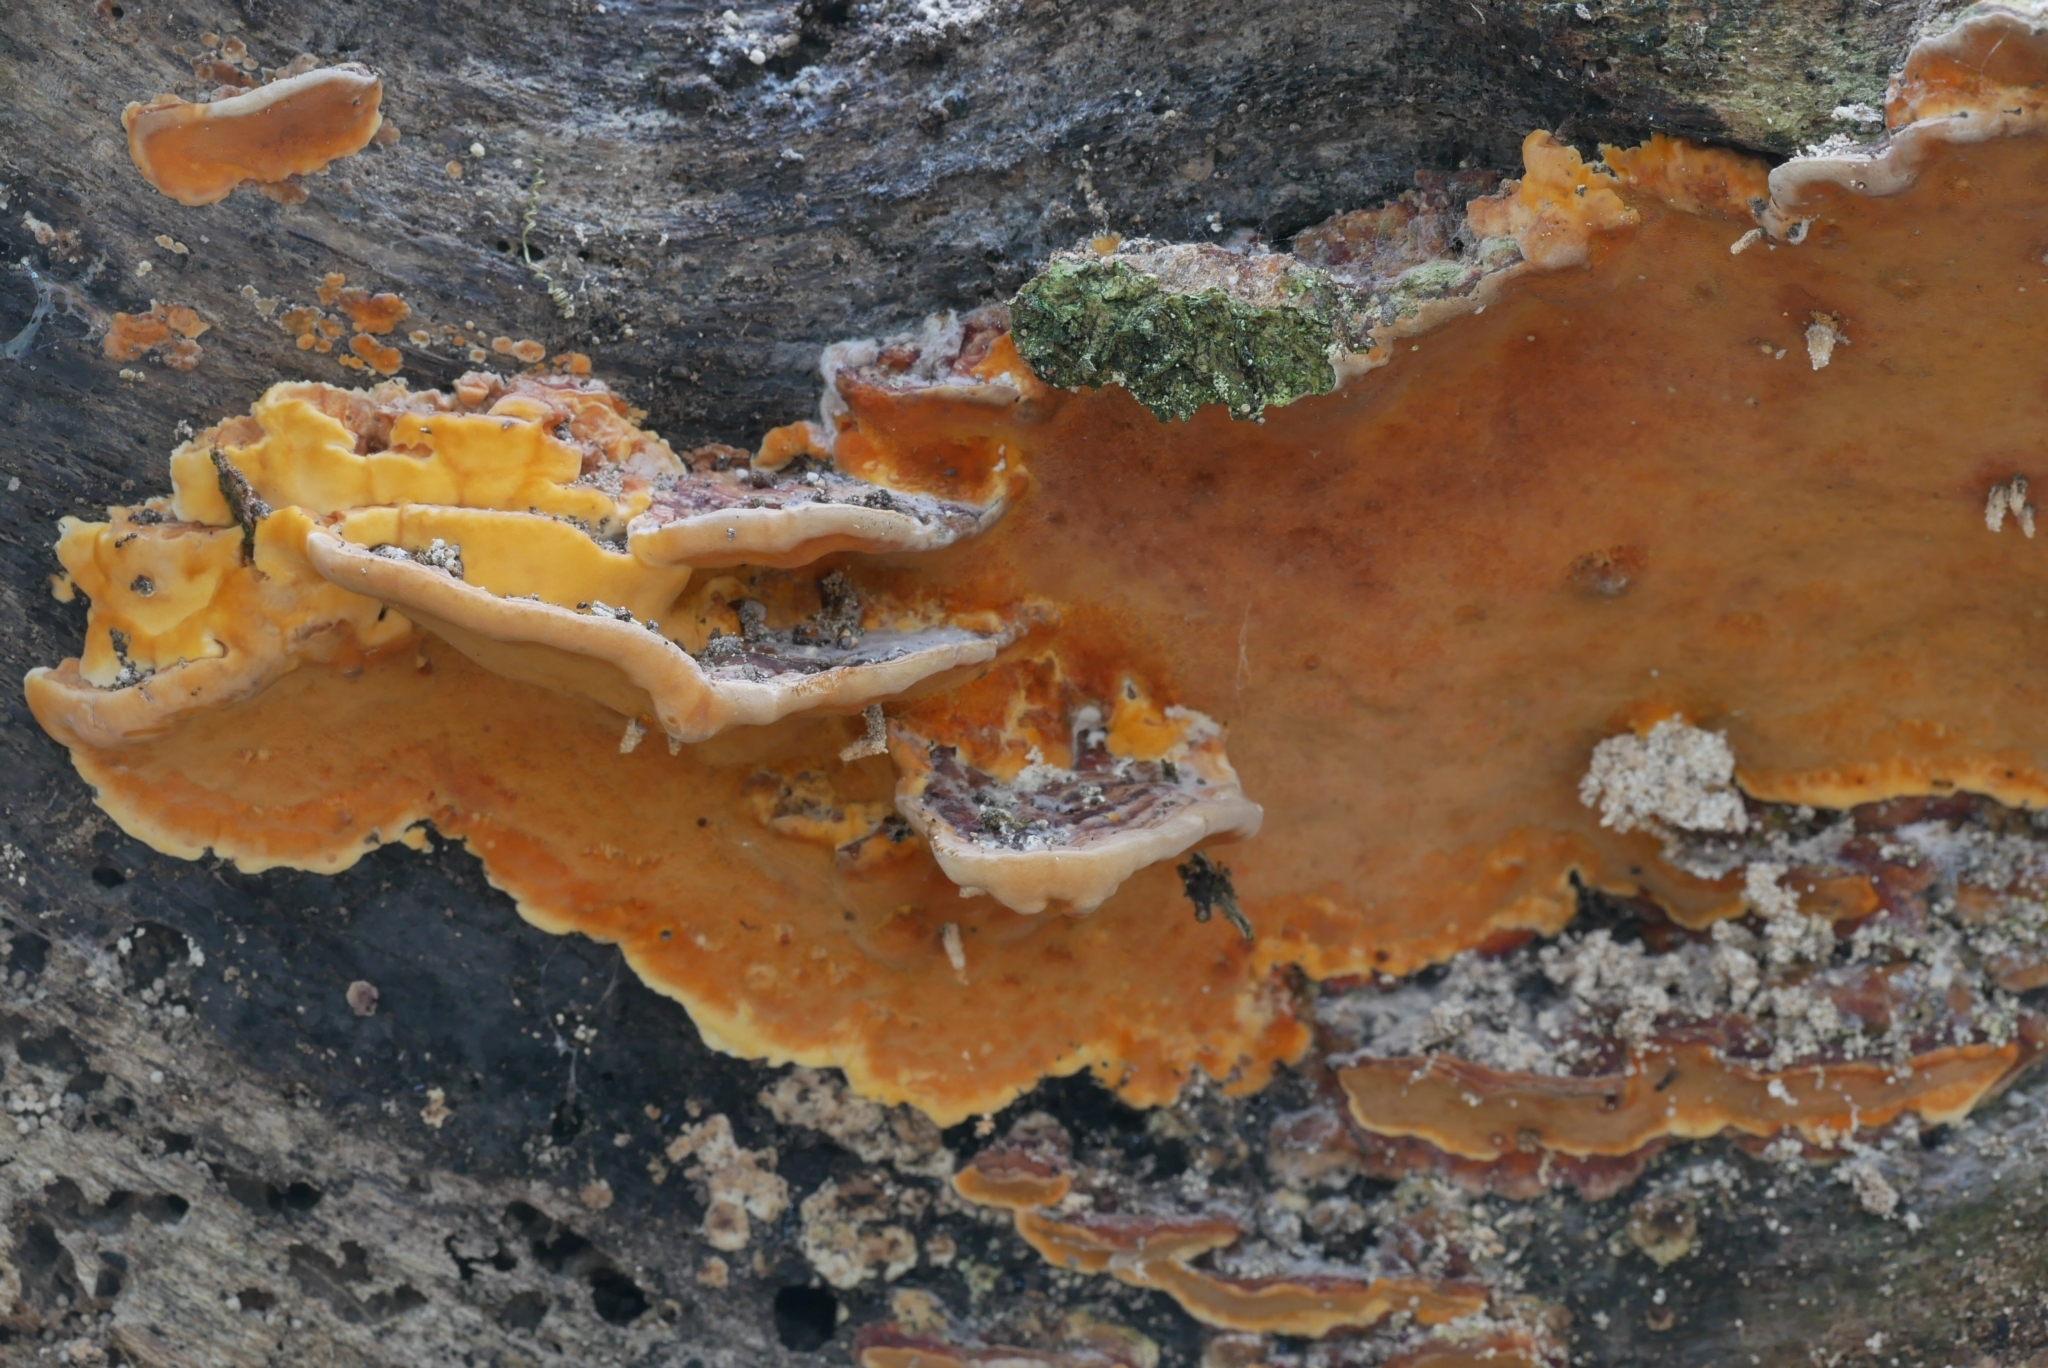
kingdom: Fungi
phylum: Basidiomycota
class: Agaricomycetes
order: Hymenochaetales
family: Oxyporaceae
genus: Oxyporus
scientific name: Oxyporus macroporus
